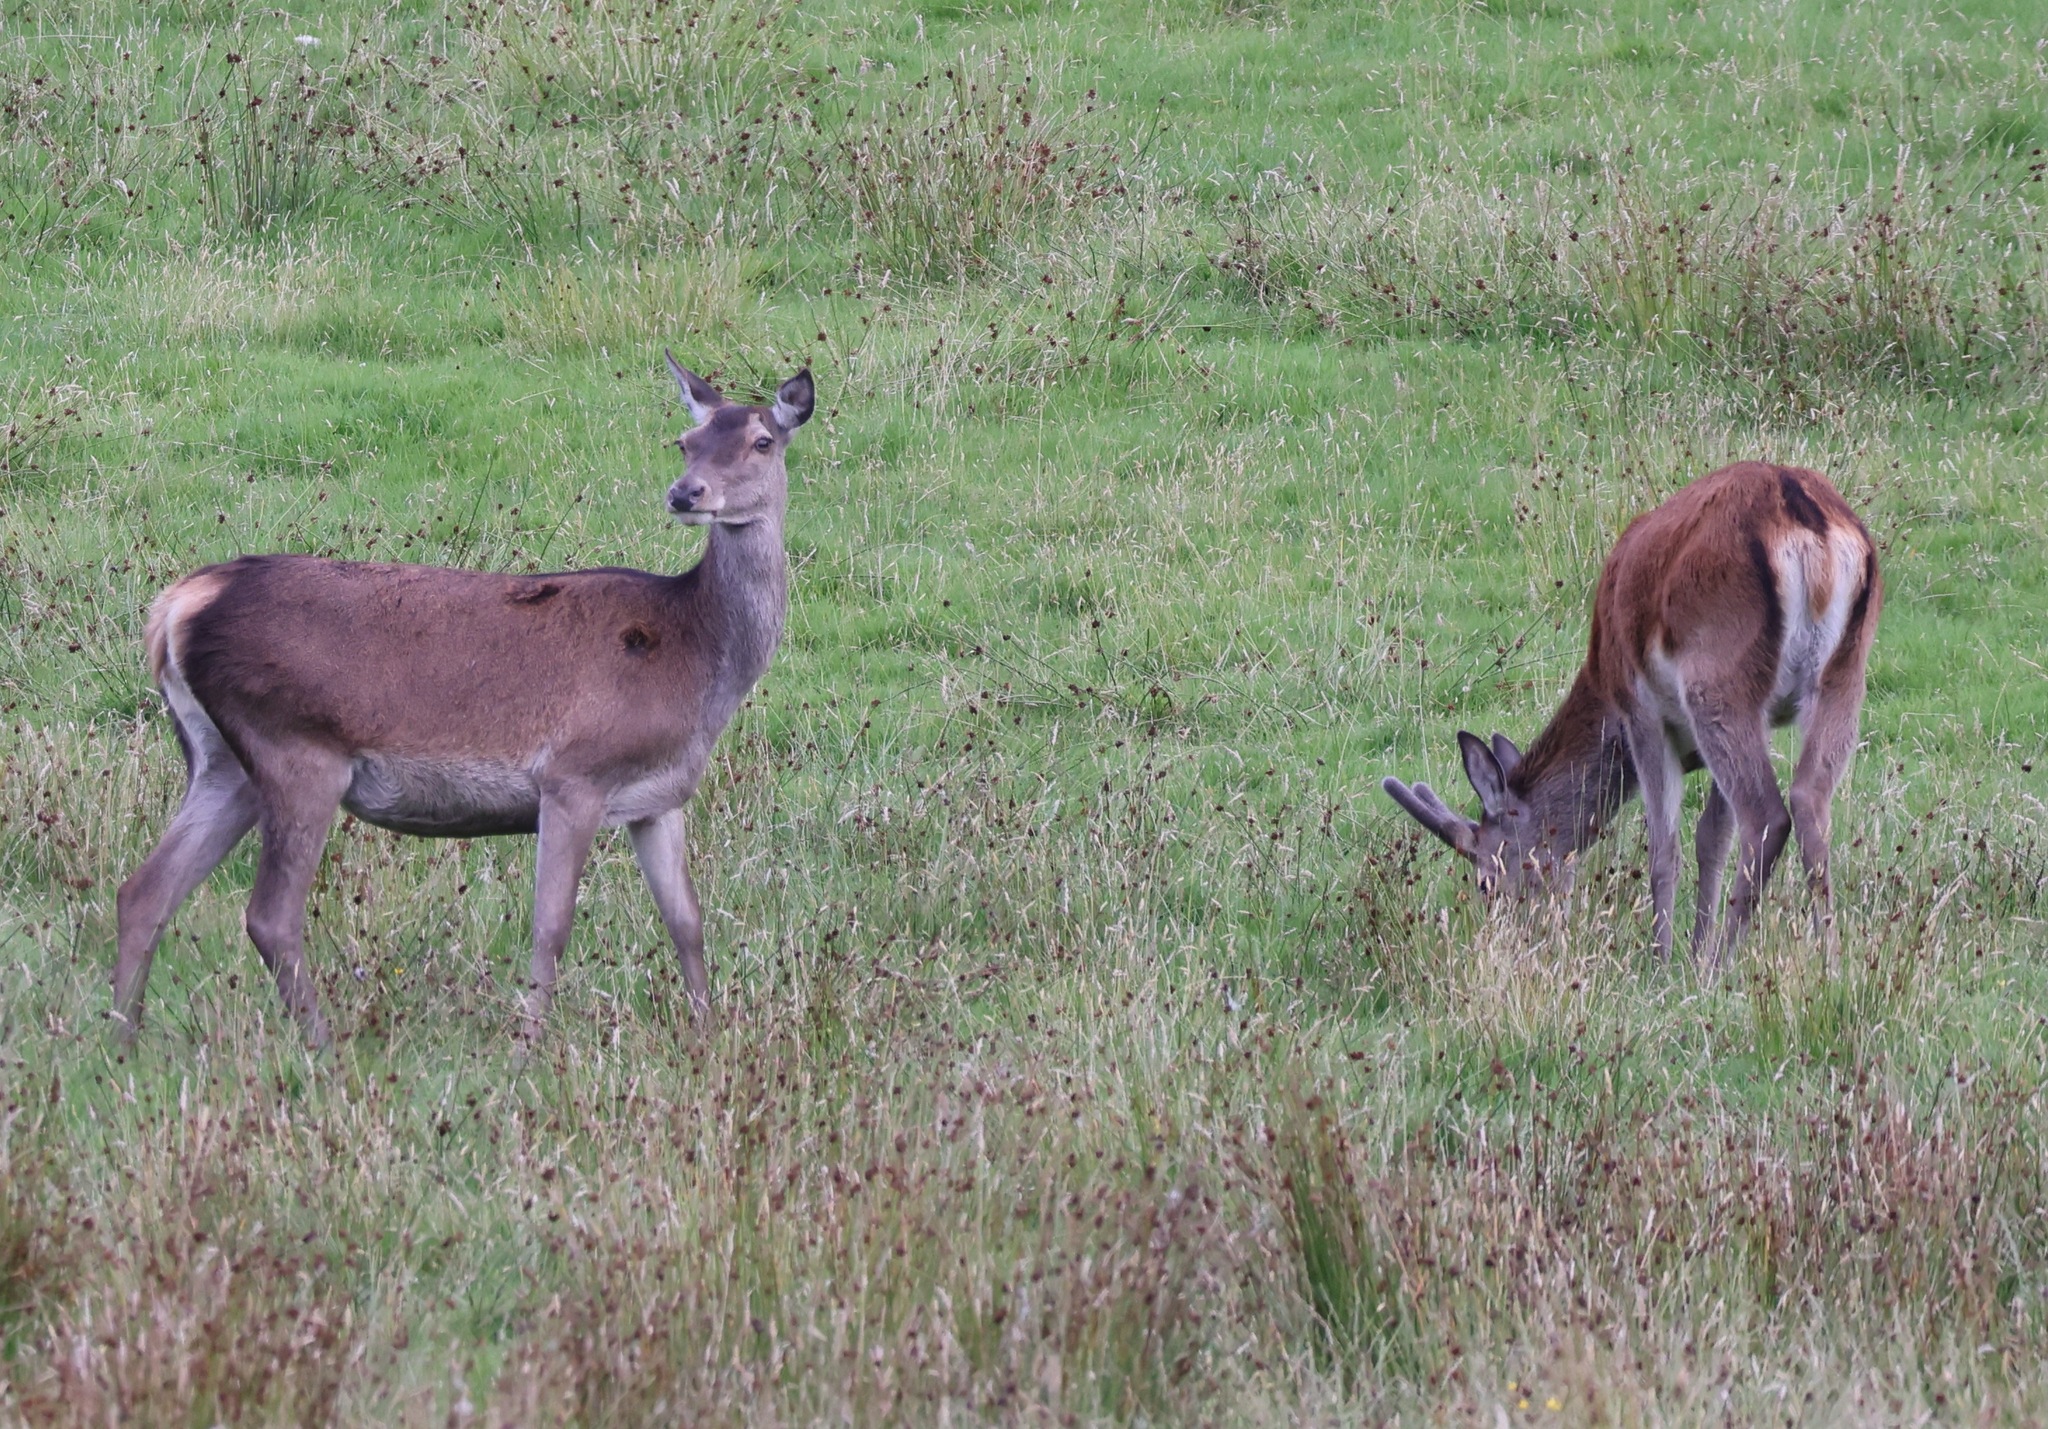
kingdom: Animalia
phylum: Chordata
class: Mammalia
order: Artiodactyla
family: Cervidae
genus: Cervus
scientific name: Cervus elaphus
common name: Red deer
